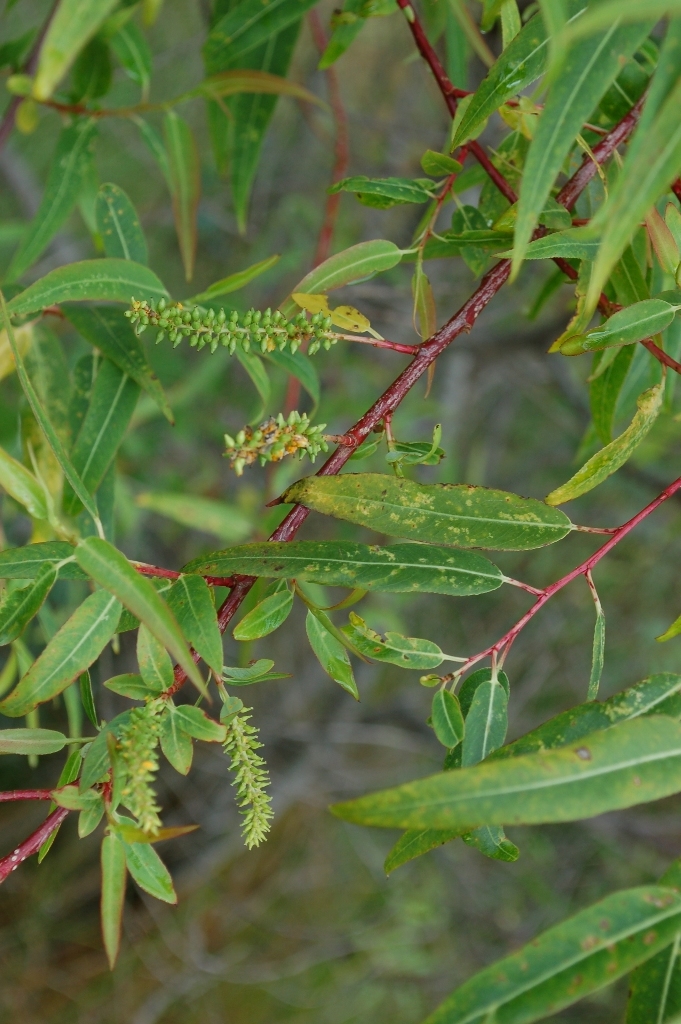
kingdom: Plantae
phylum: Tracheophyta
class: Magnoliopsida
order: Malpighiales
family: Salicaceae
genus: Salix
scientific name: Salix bonplandiana
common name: Bonpland’s willow
